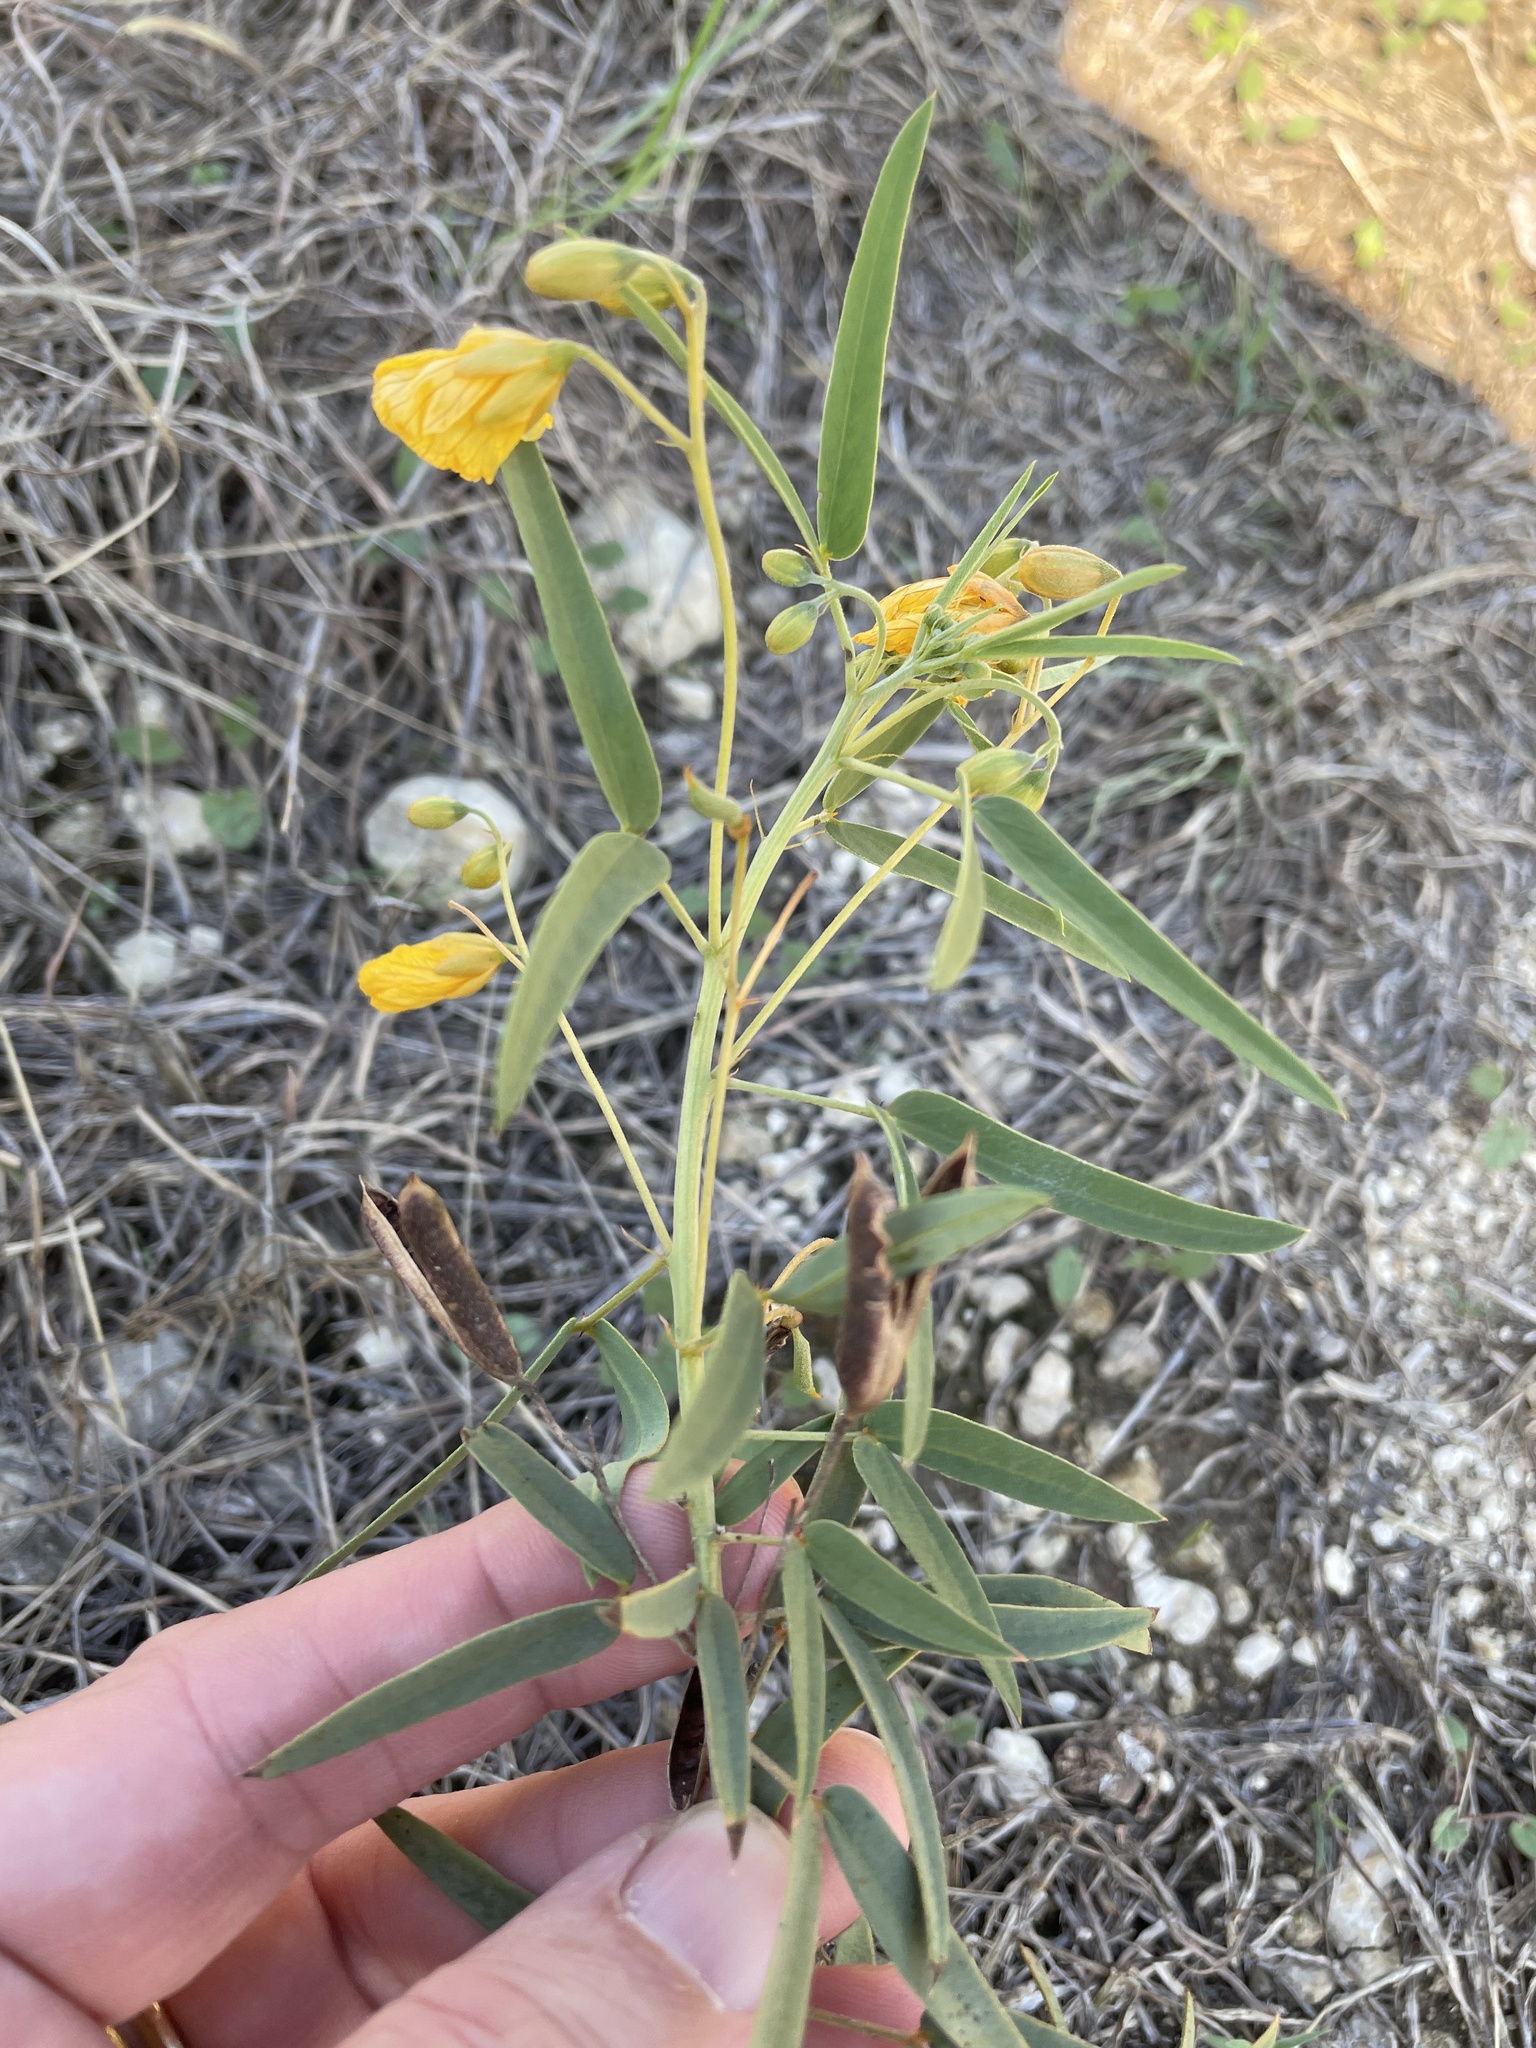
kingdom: Plantae
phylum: Tracheophyta
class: Magnoliopsida
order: Fabales
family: Fabaceae
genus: Senna
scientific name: Senna roemeriana
